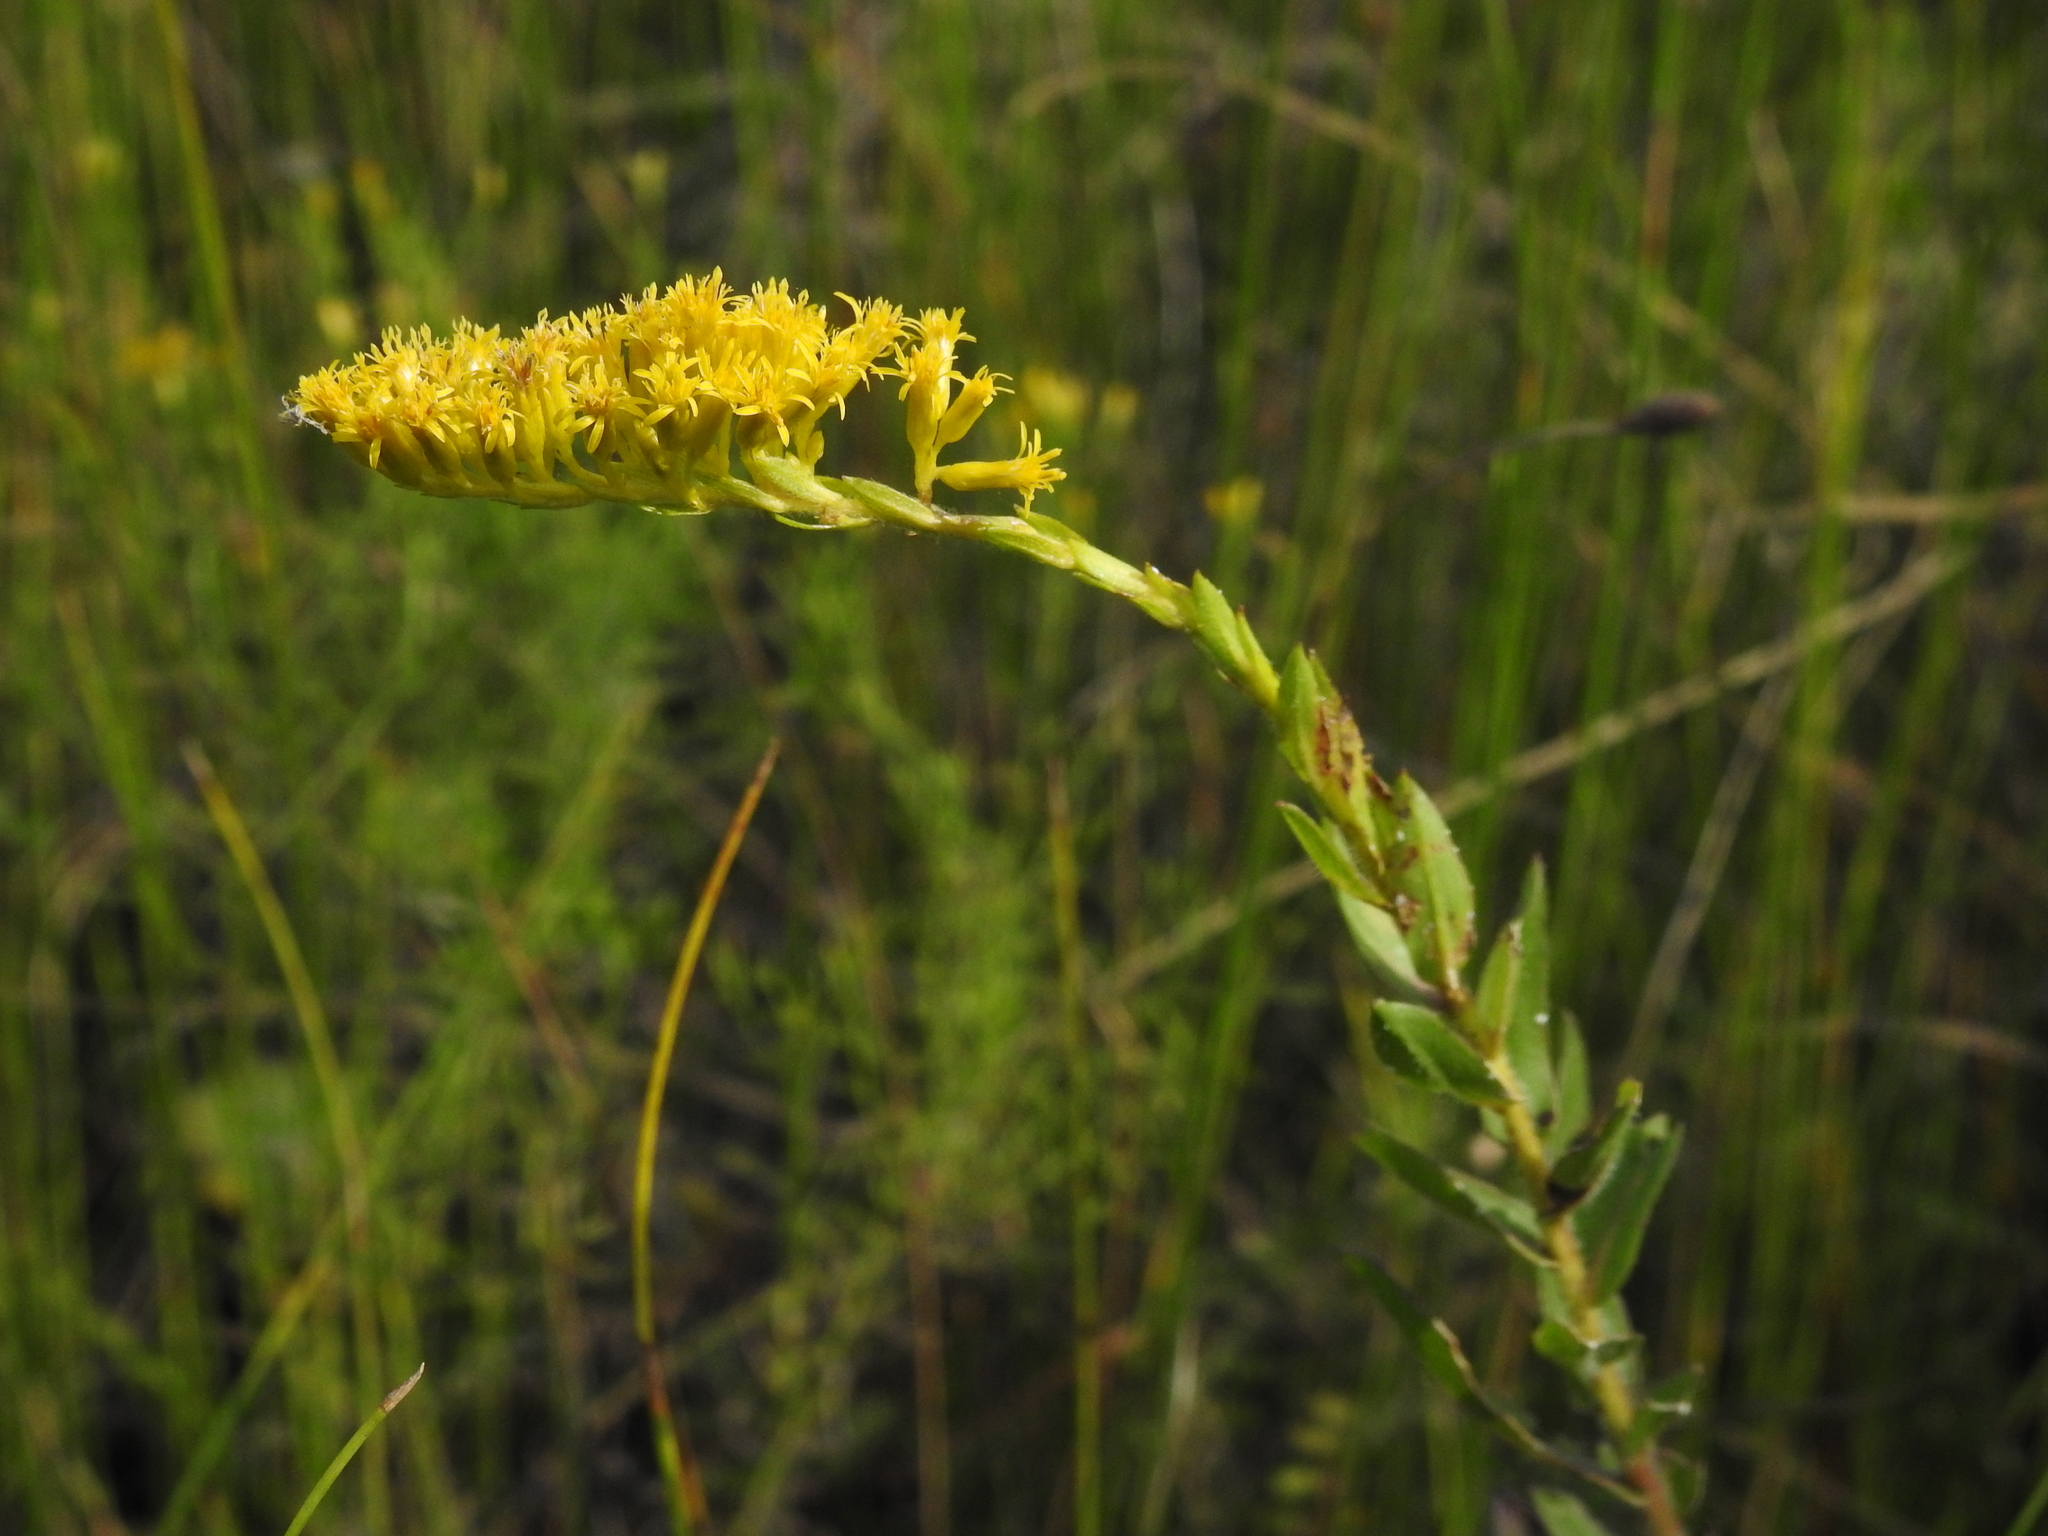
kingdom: Plantae
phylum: Tracheophyta
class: Magnoliopsida
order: Asterales
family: Asteraceae
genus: Solidago
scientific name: Solidago fistulosa
